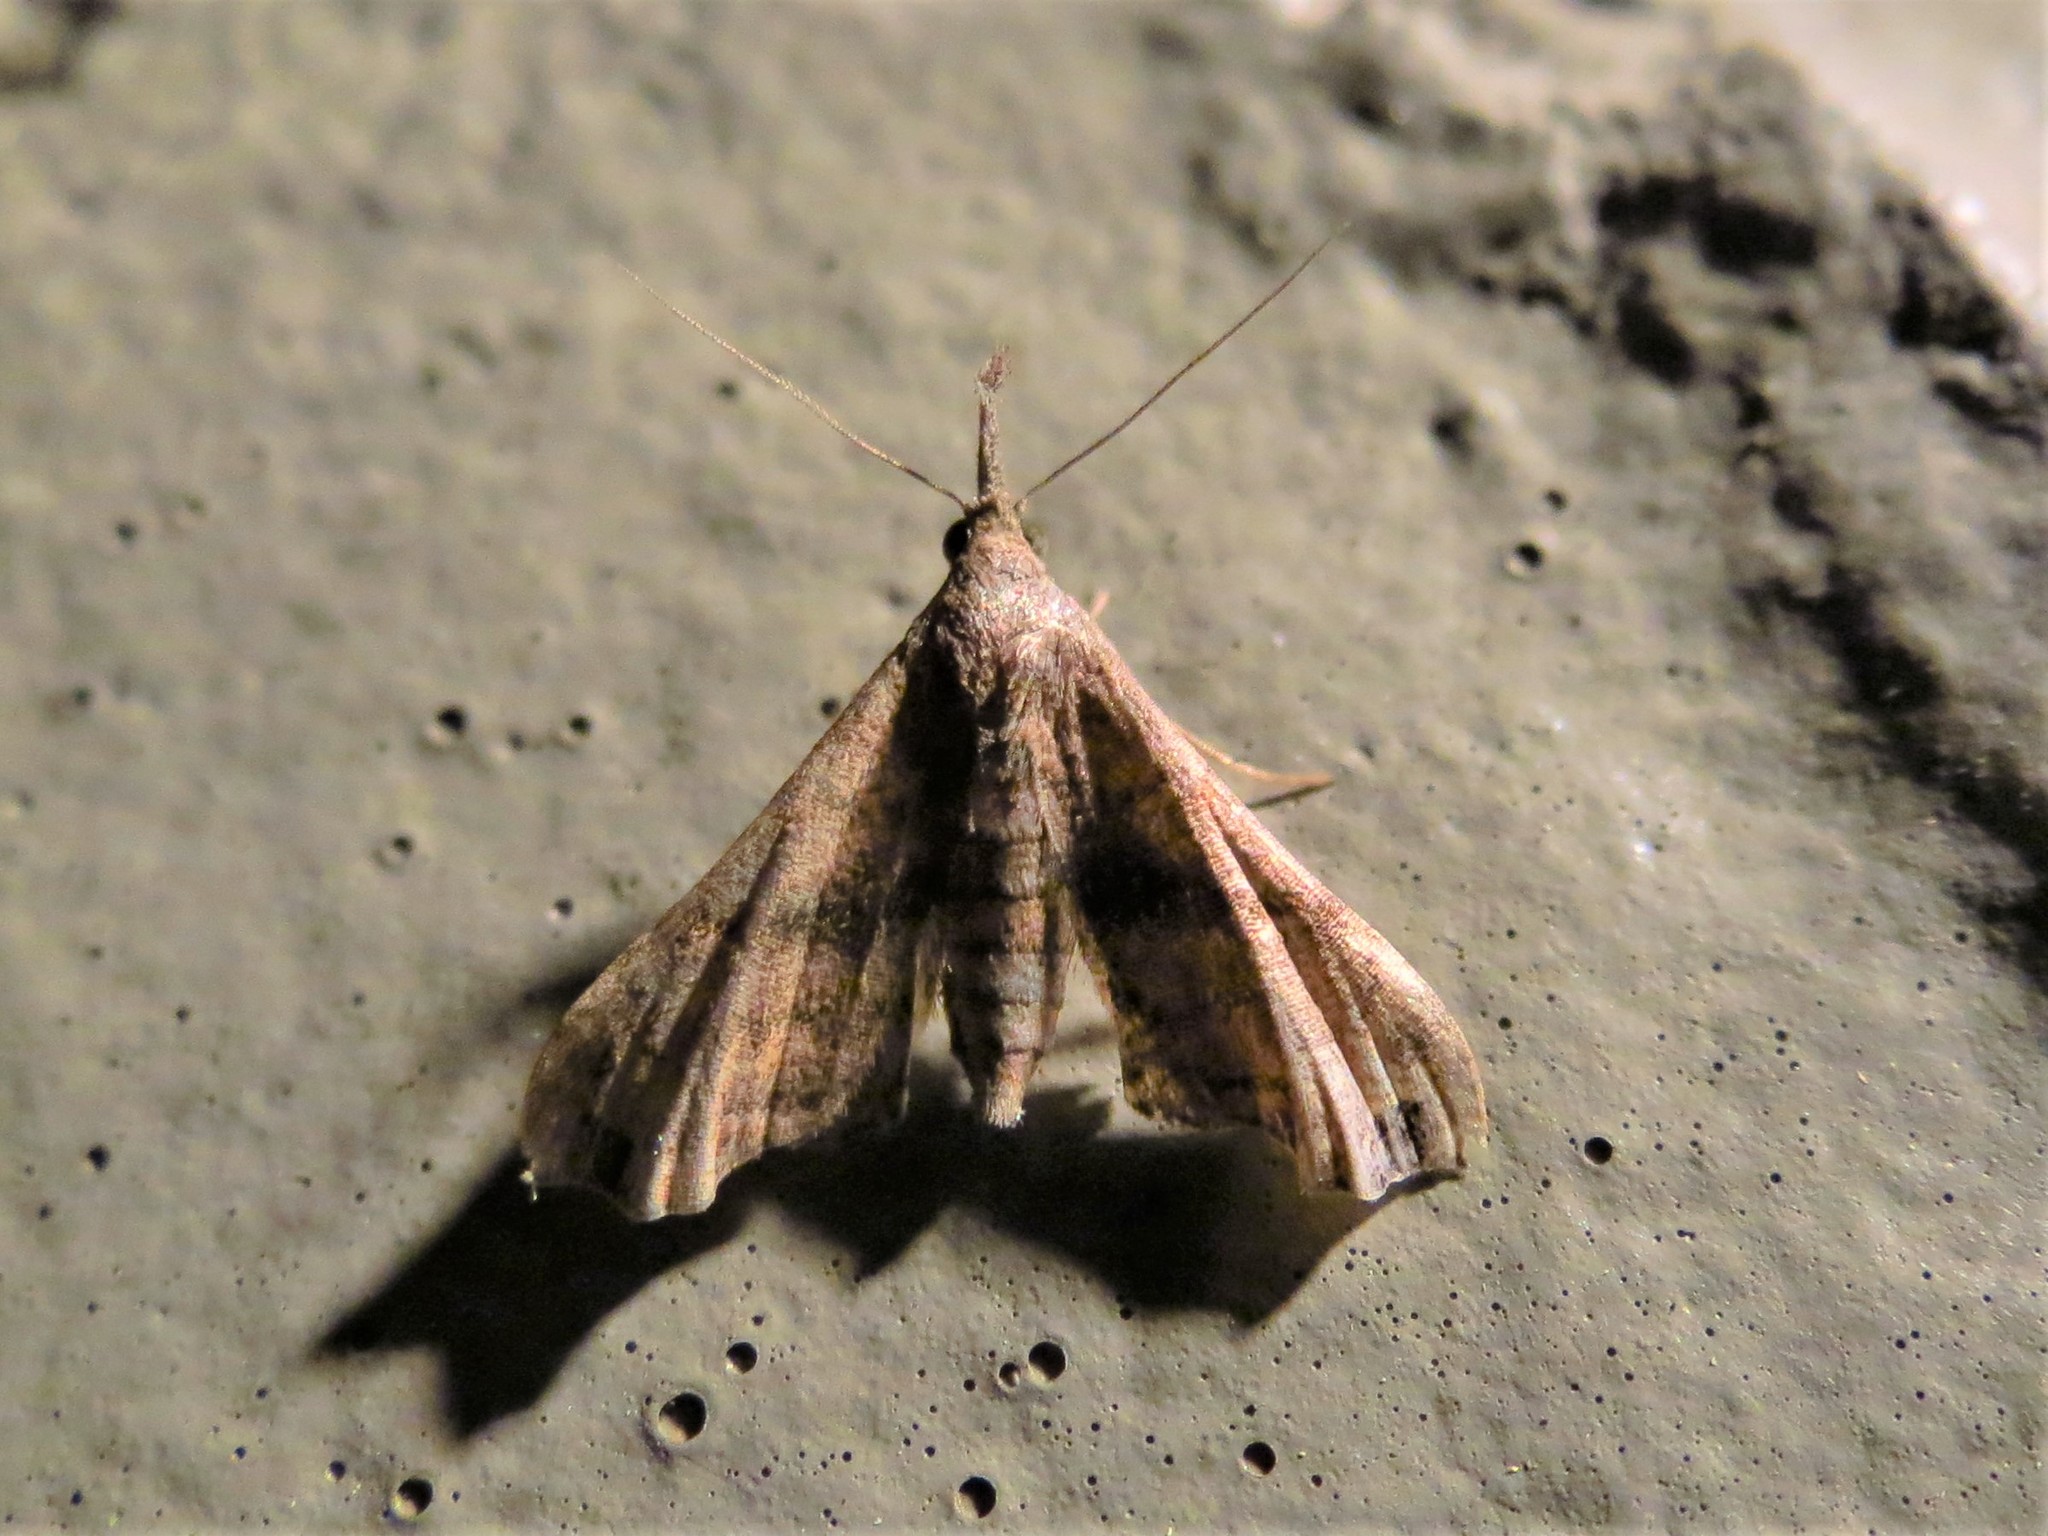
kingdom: Animalia
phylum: Arthropoda
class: Insecta
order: Lepidoptera
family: Erebidae
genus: Palthis
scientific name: Palthis asopialis
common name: Faint-spotted palthis moth
